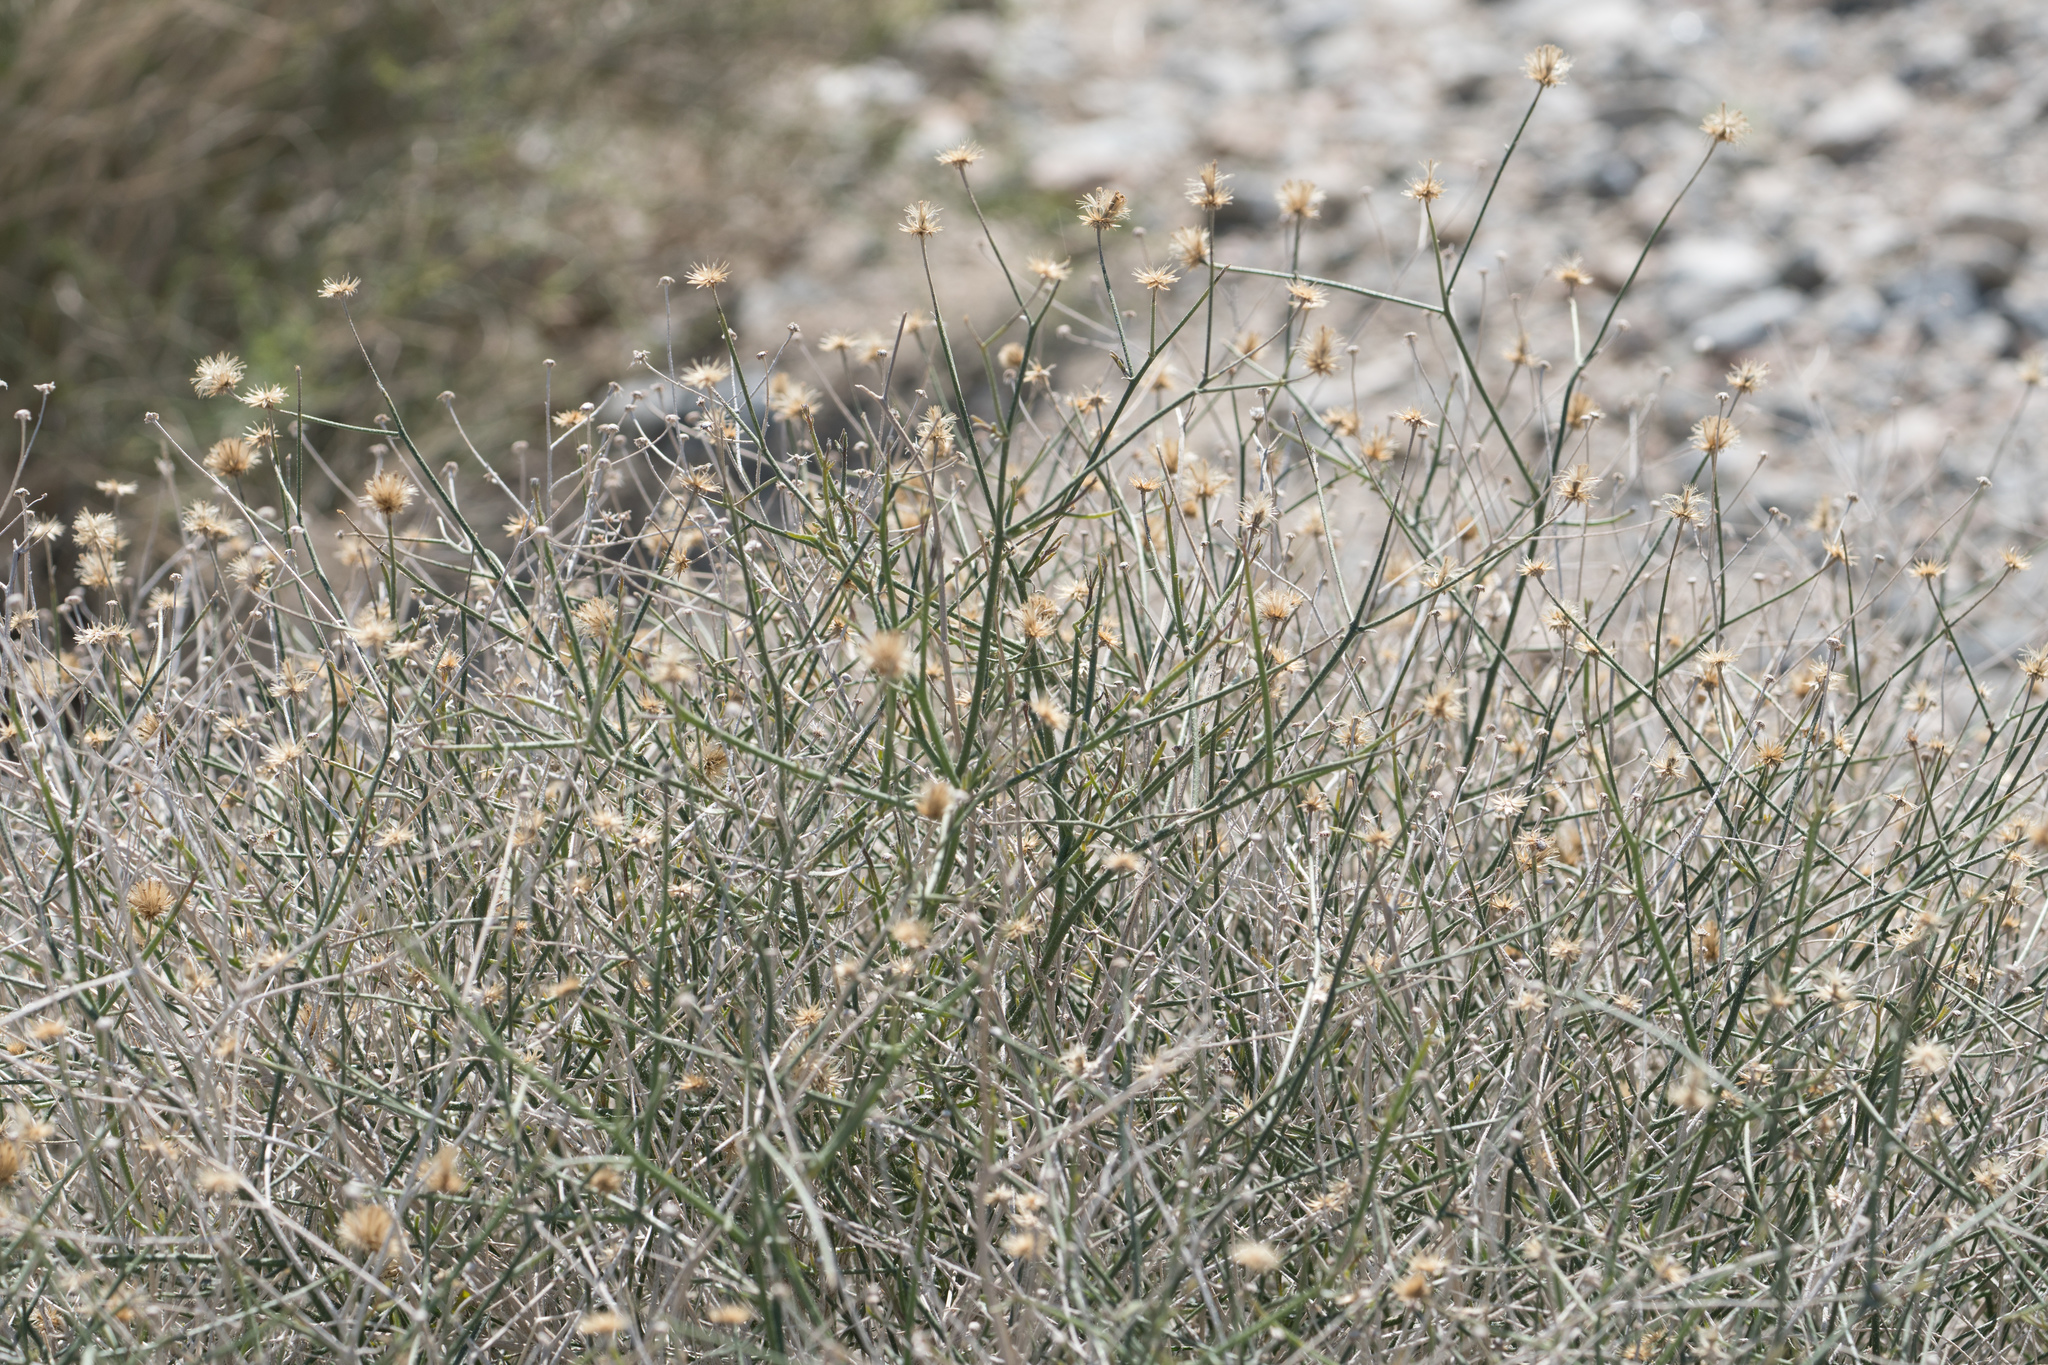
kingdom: Plantae
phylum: Tracheophyta
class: Magnoliopsida
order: Asterales
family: Asteraceae
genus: Bebbia
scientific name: Bebbia juncea
